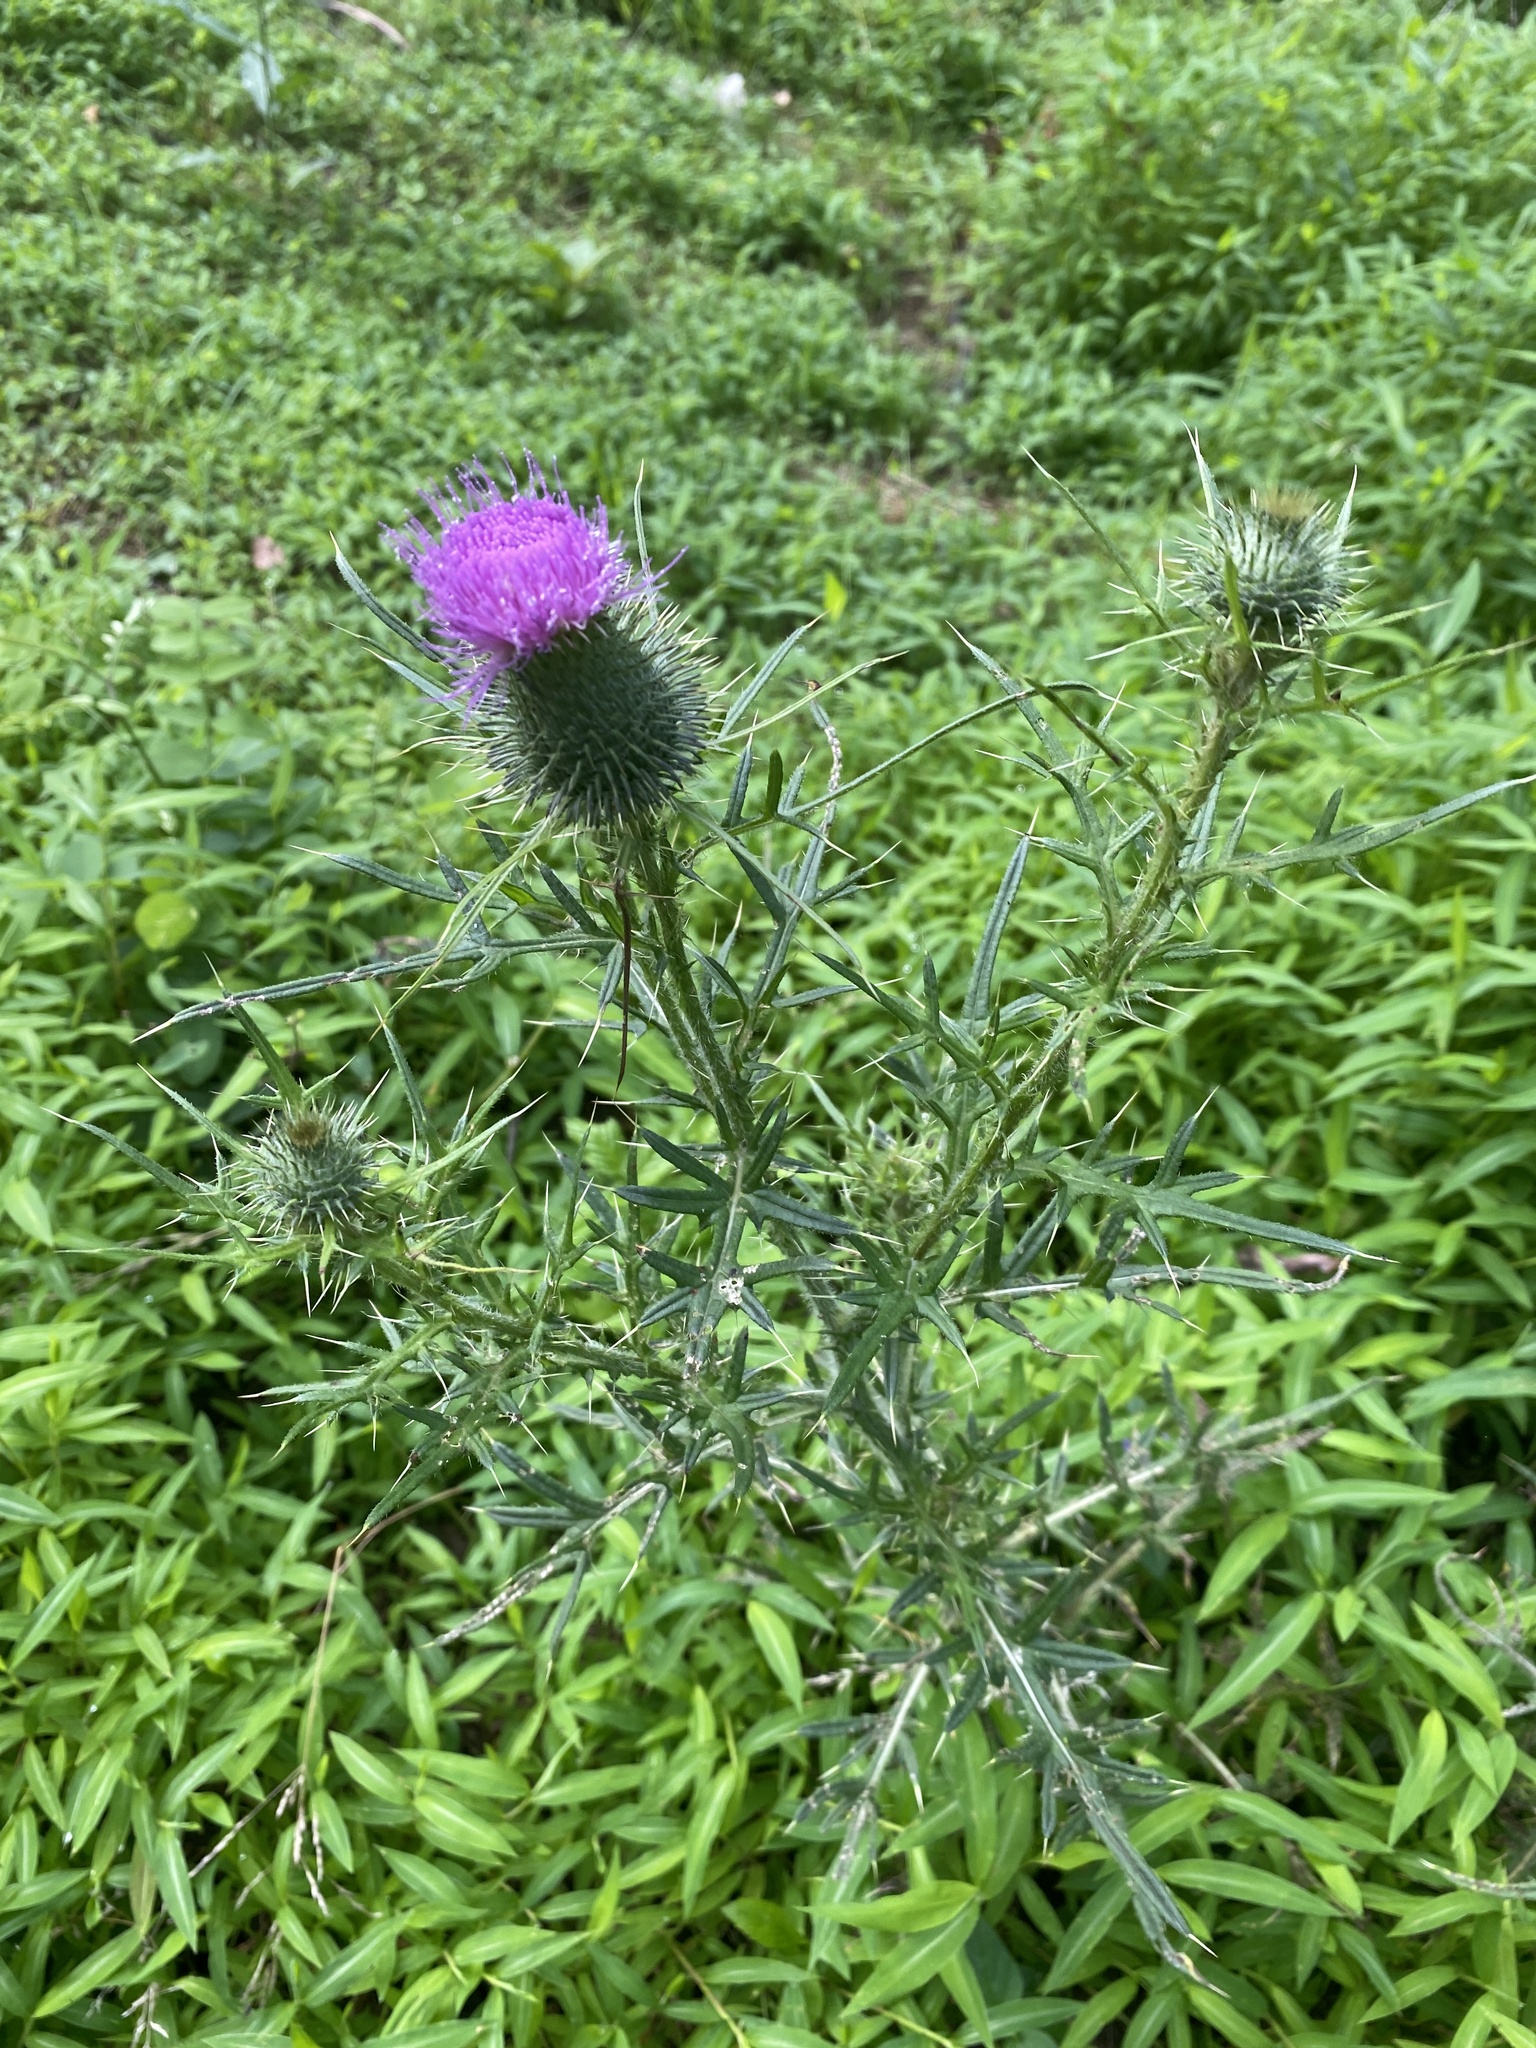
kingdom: Plantae
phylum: Tracheophyta
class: Magnoliopsida
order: Asterales
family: Asteraceae
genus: Cirsium
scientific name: Cirsium vulgare
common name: Bull thistle
